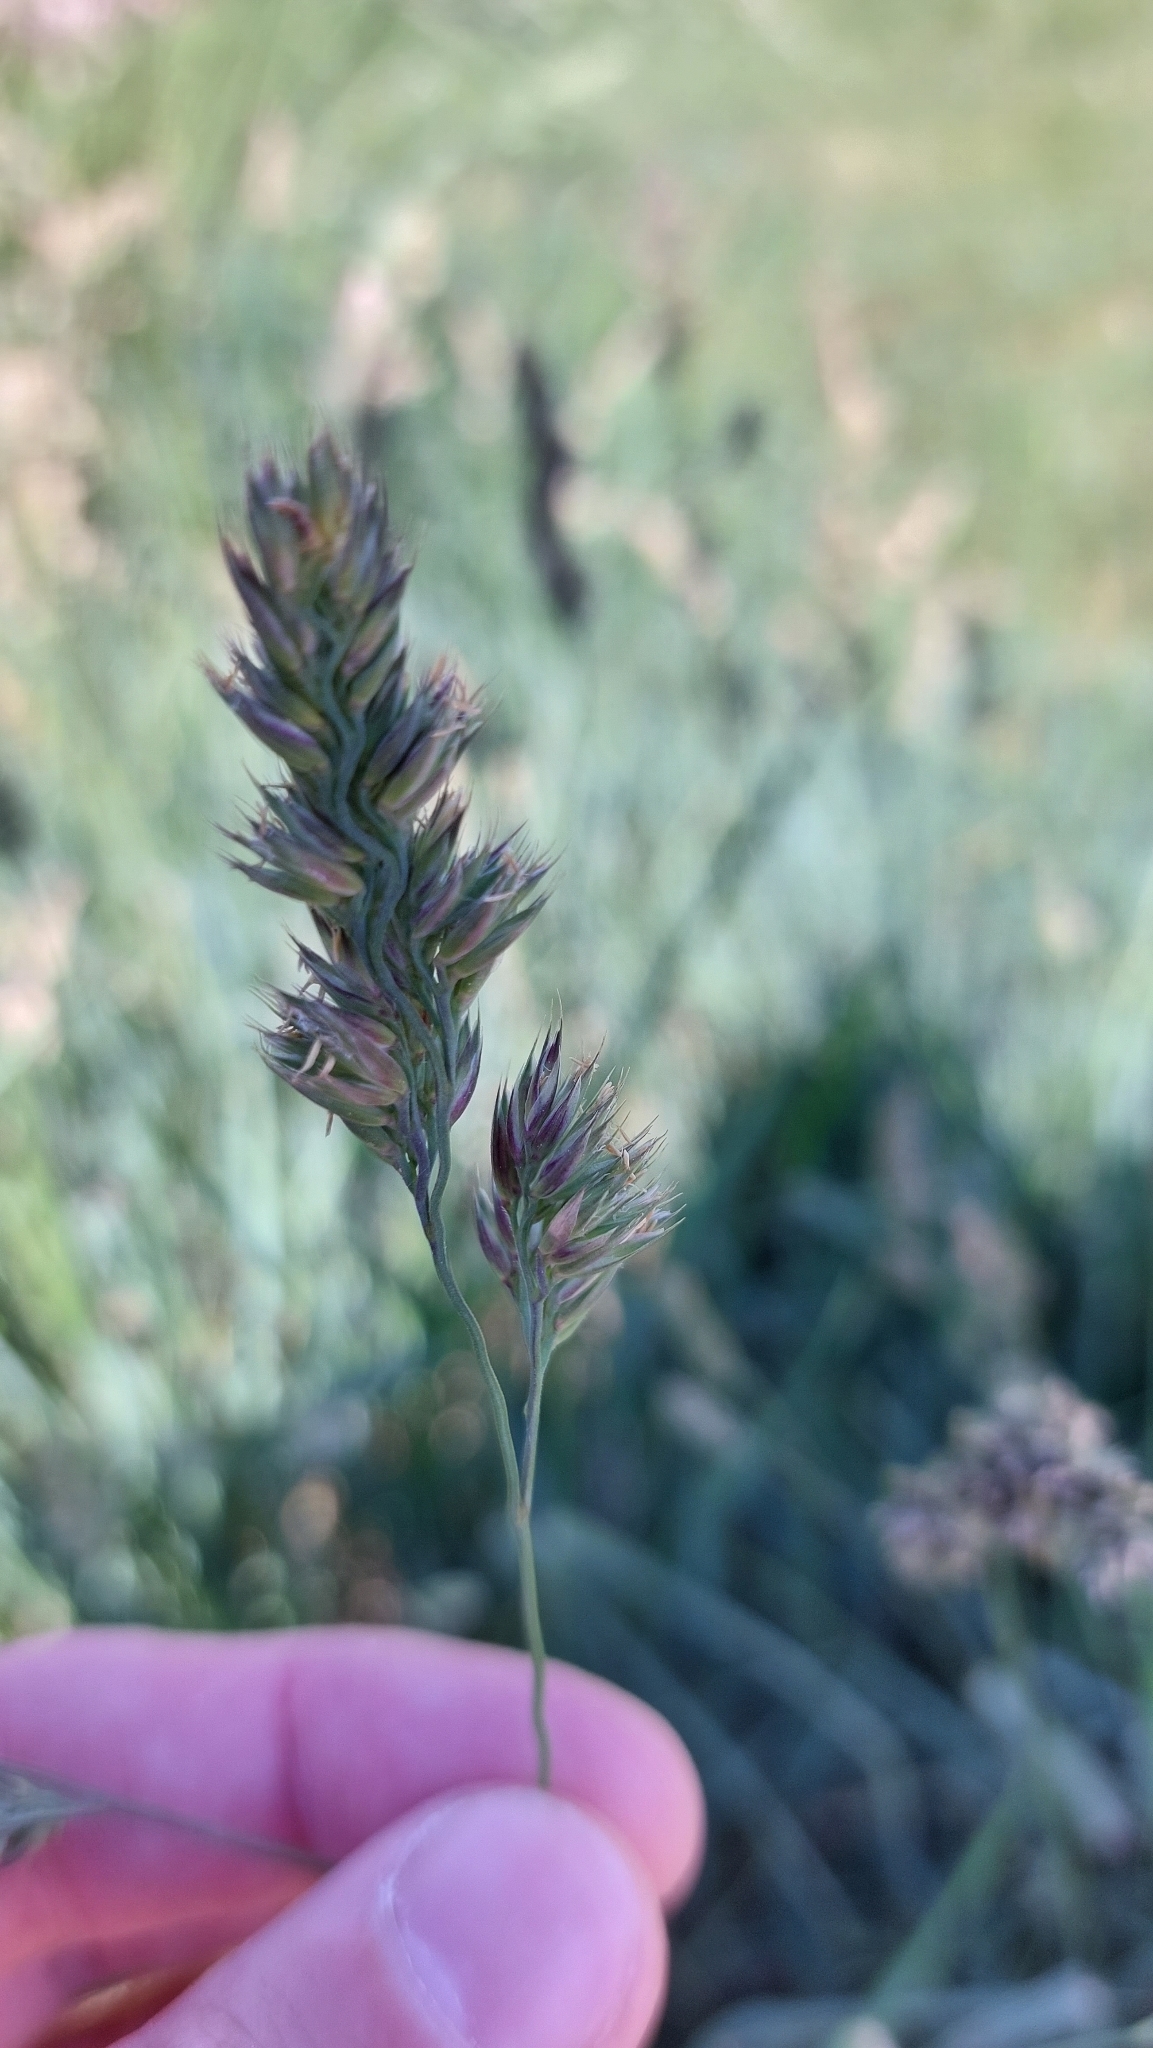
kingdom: Plantae
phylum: Tracheophyta
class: Liliopsida
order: Poales
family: Poaceae
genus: Dactylis
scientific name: Dactylis glomerata
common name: Orchardgrass
